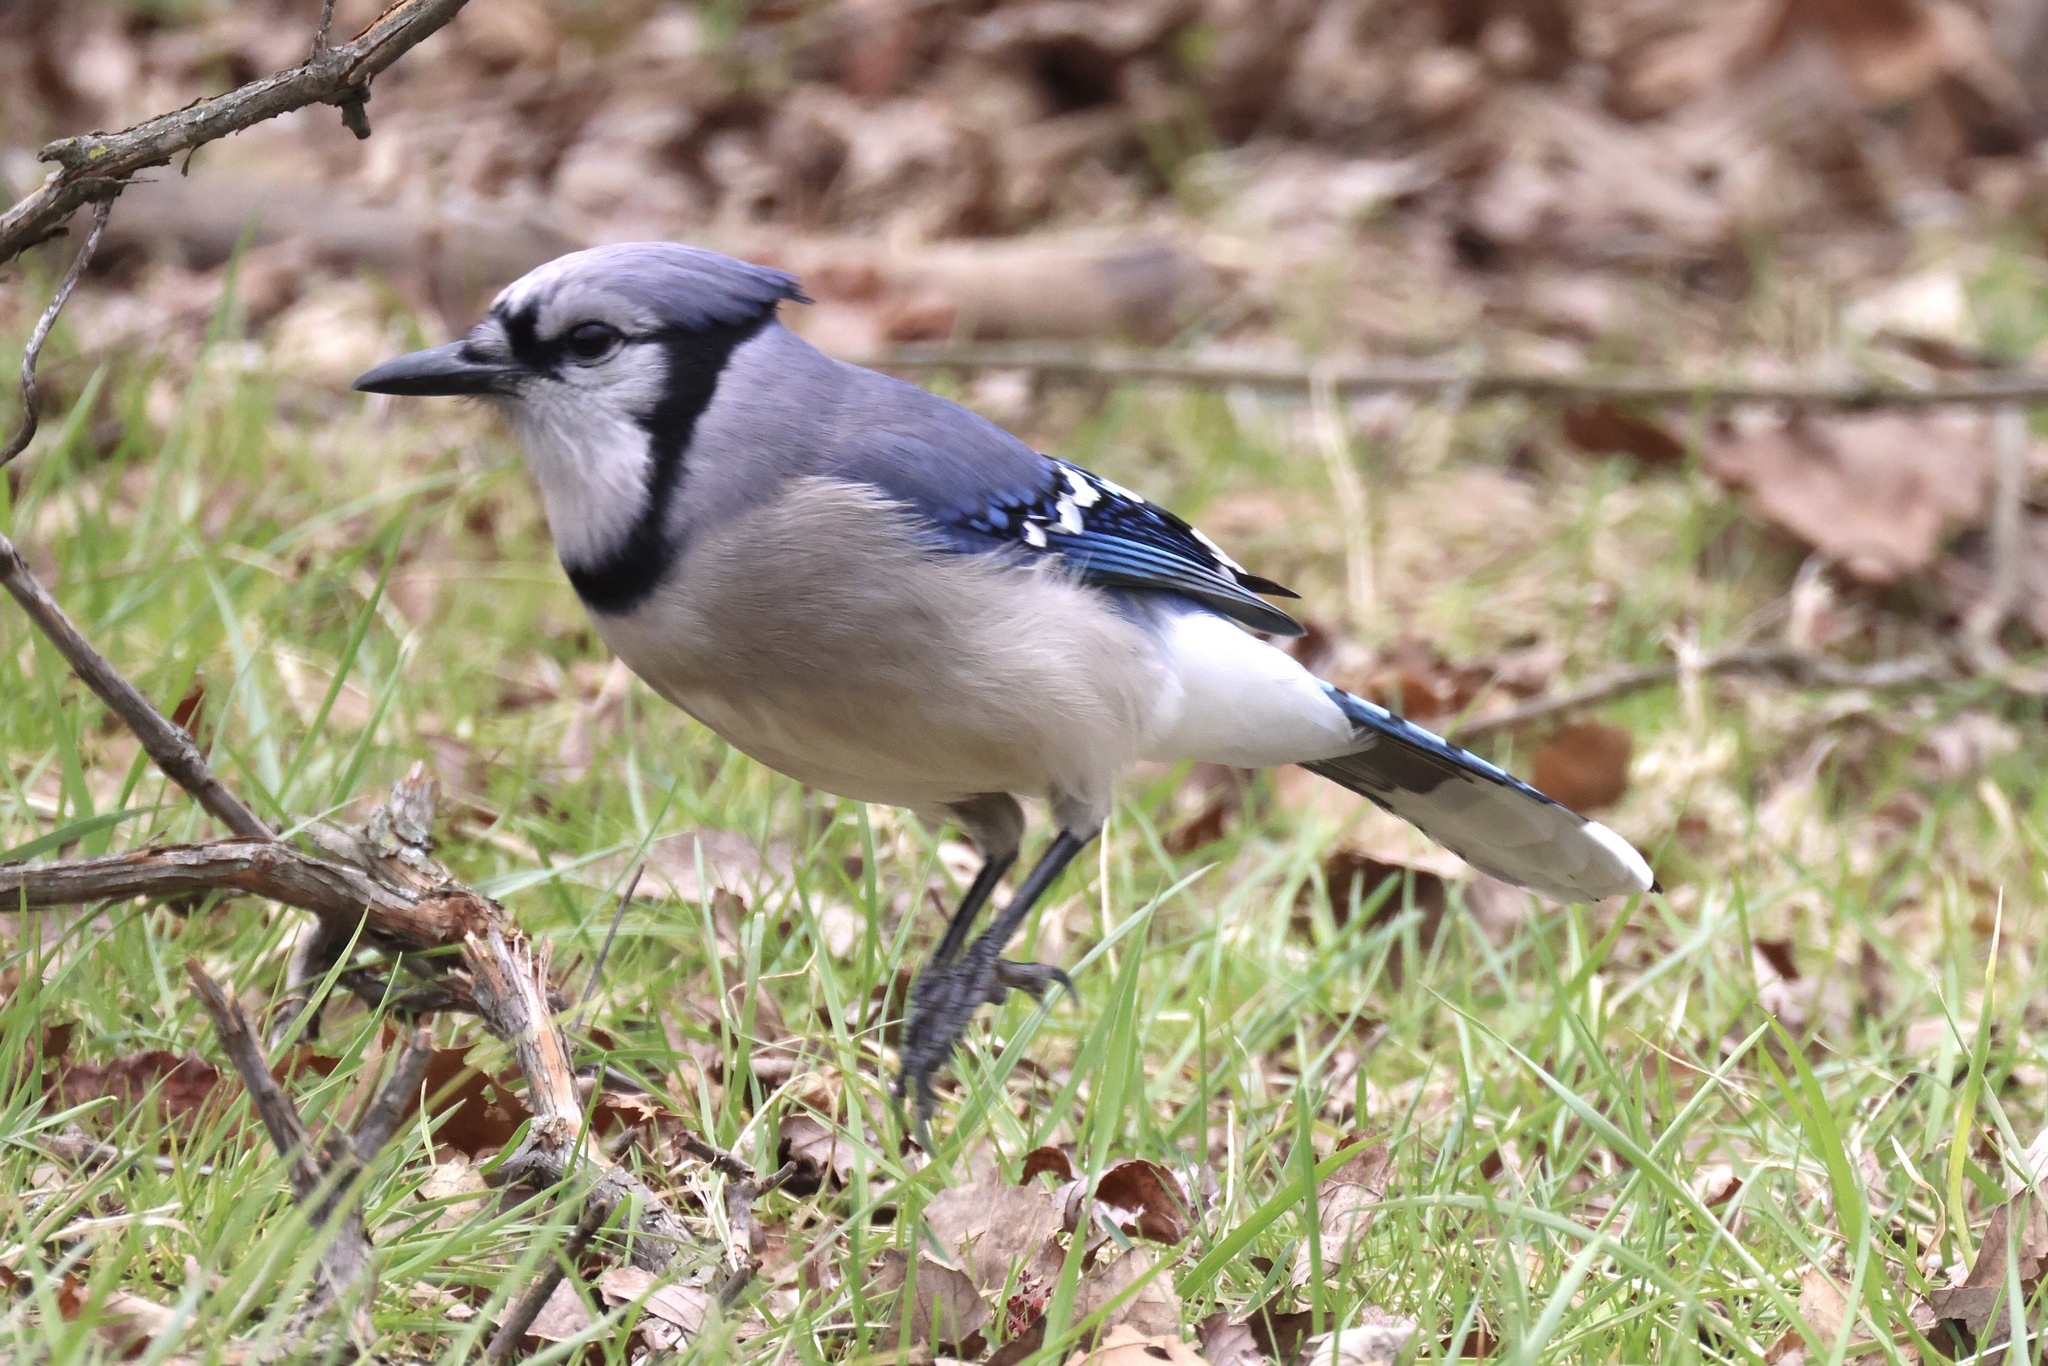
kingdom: Animalia
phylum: Chordata
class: Aves
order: Passeriformes
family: Corvidae
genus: Cyanocitta
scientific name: Cyanocitta cristata
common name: Blue jay
